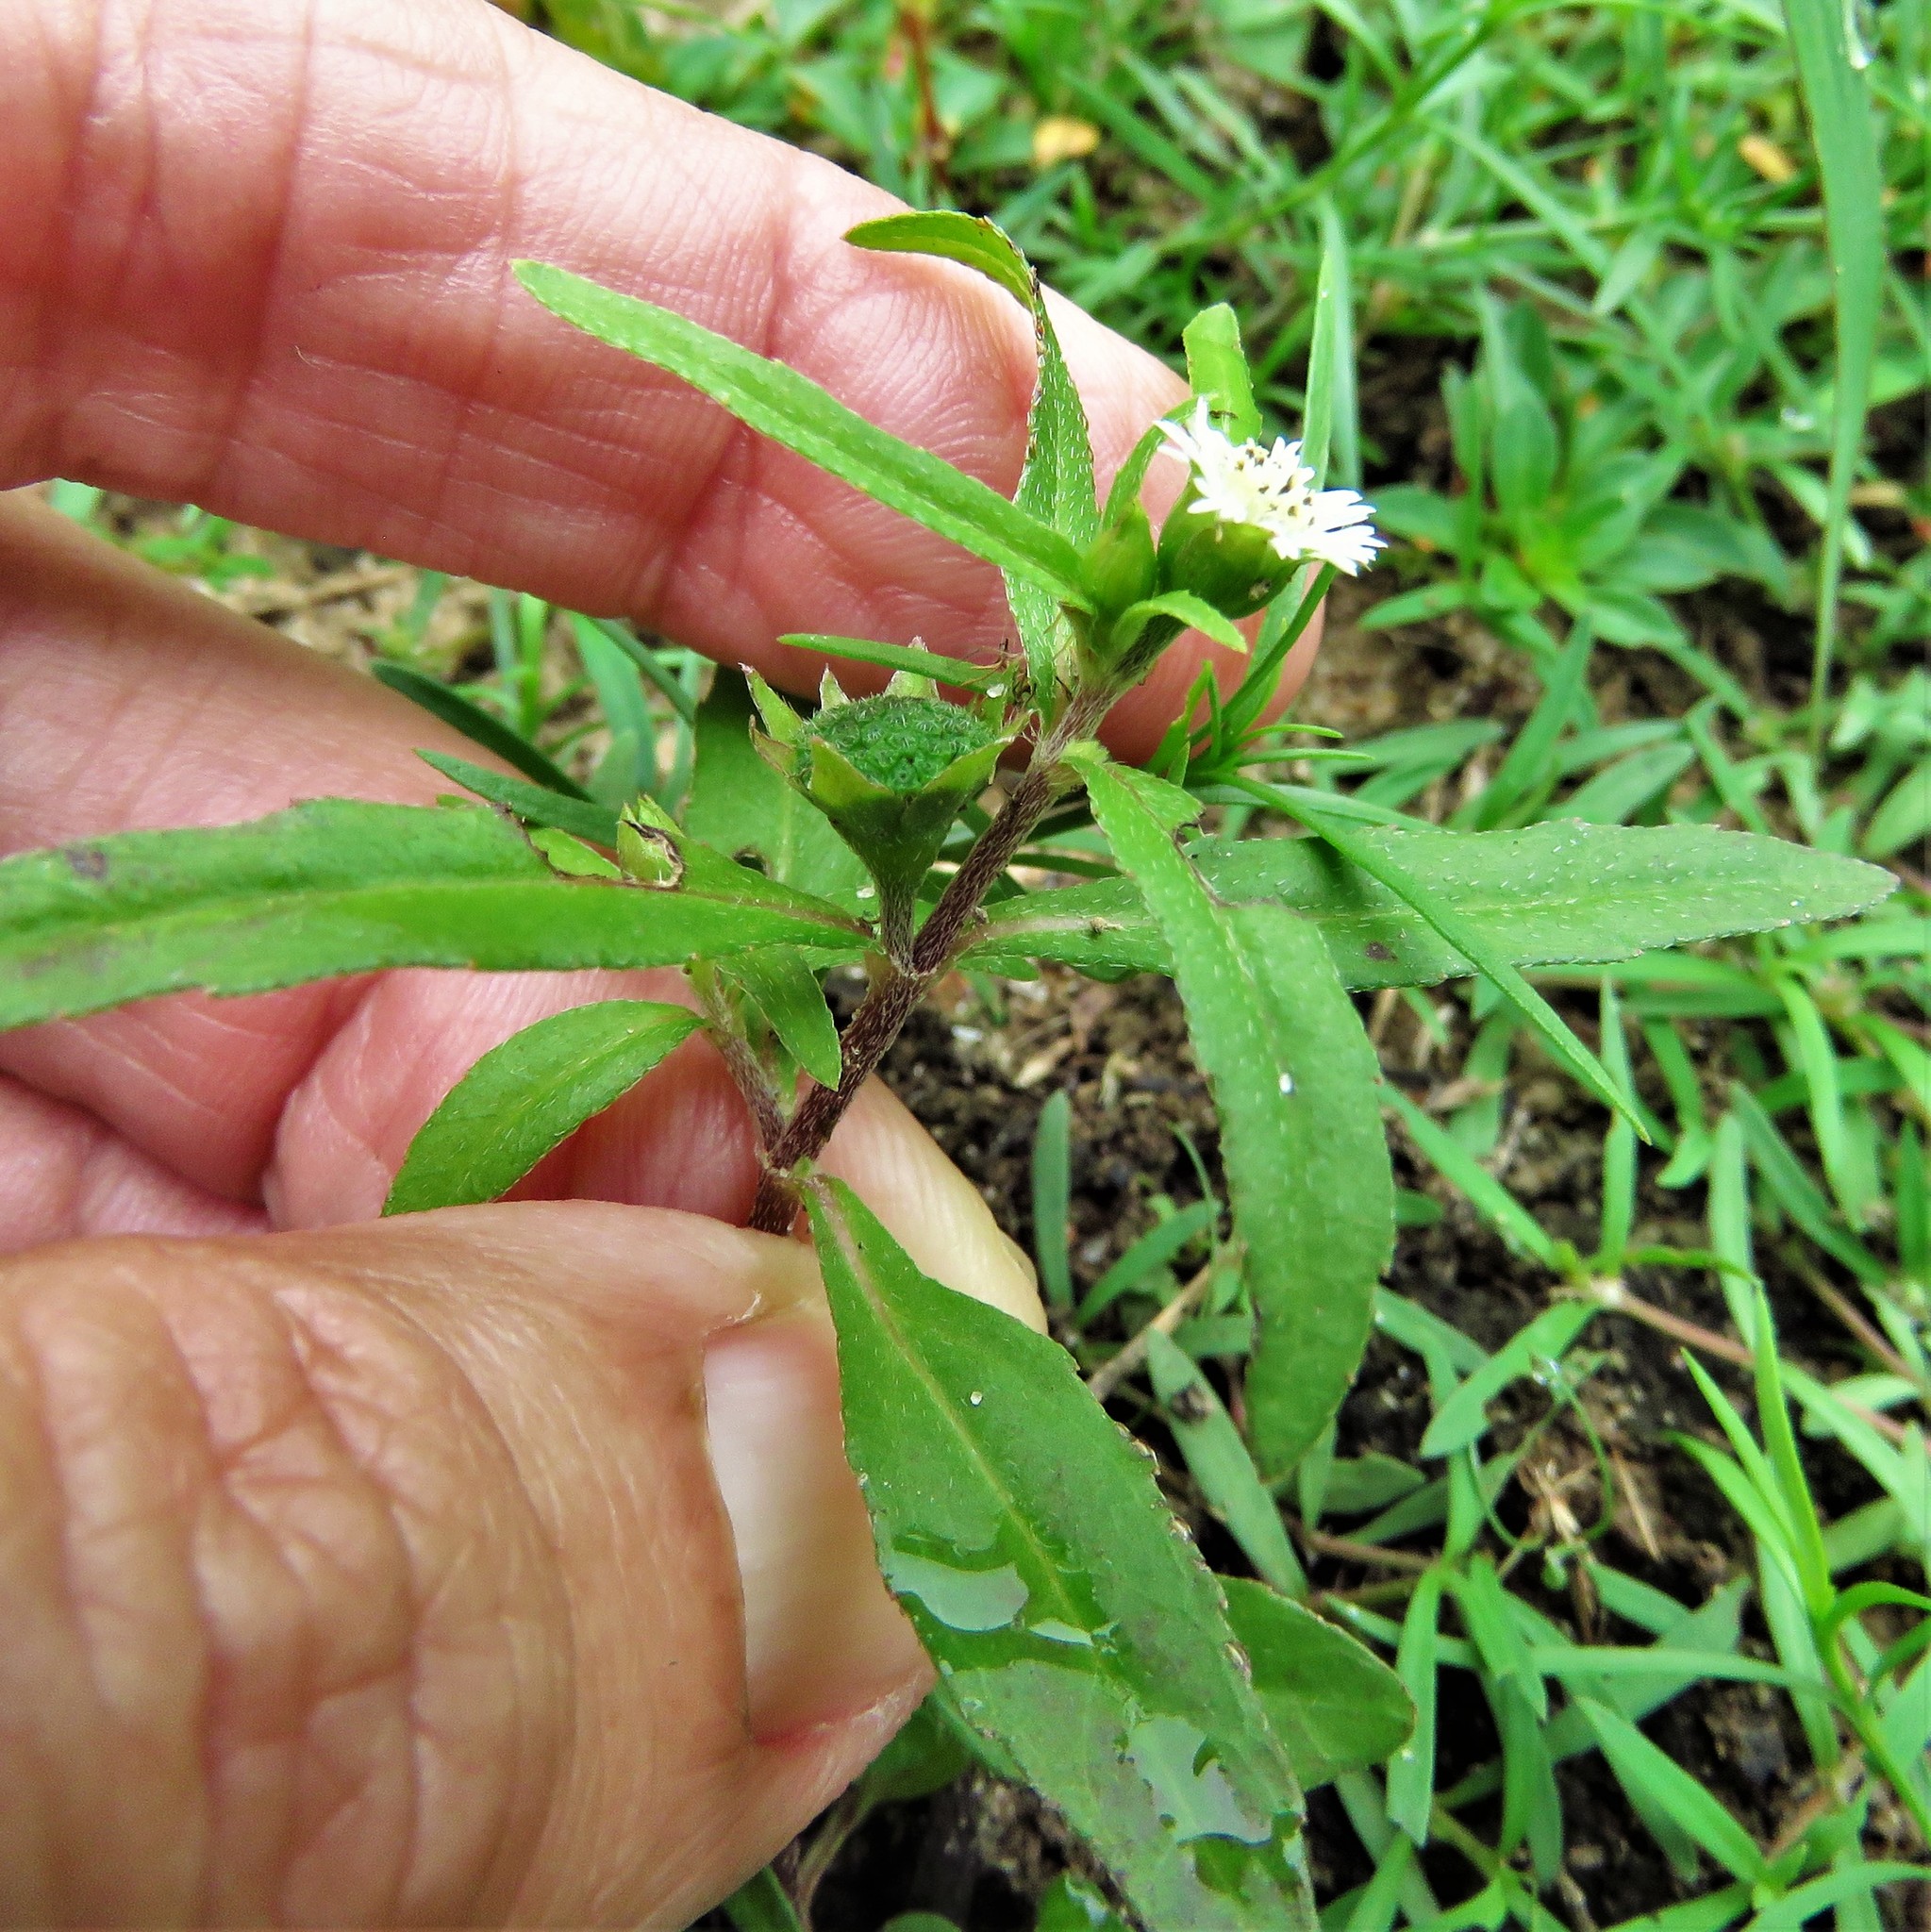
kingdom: Plantae
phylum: Tracheophyta
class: Magnoliopsida
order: Asterales
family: Asteraceae
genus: Eclipta
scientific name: Eclipta prostrata
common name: False daisy
